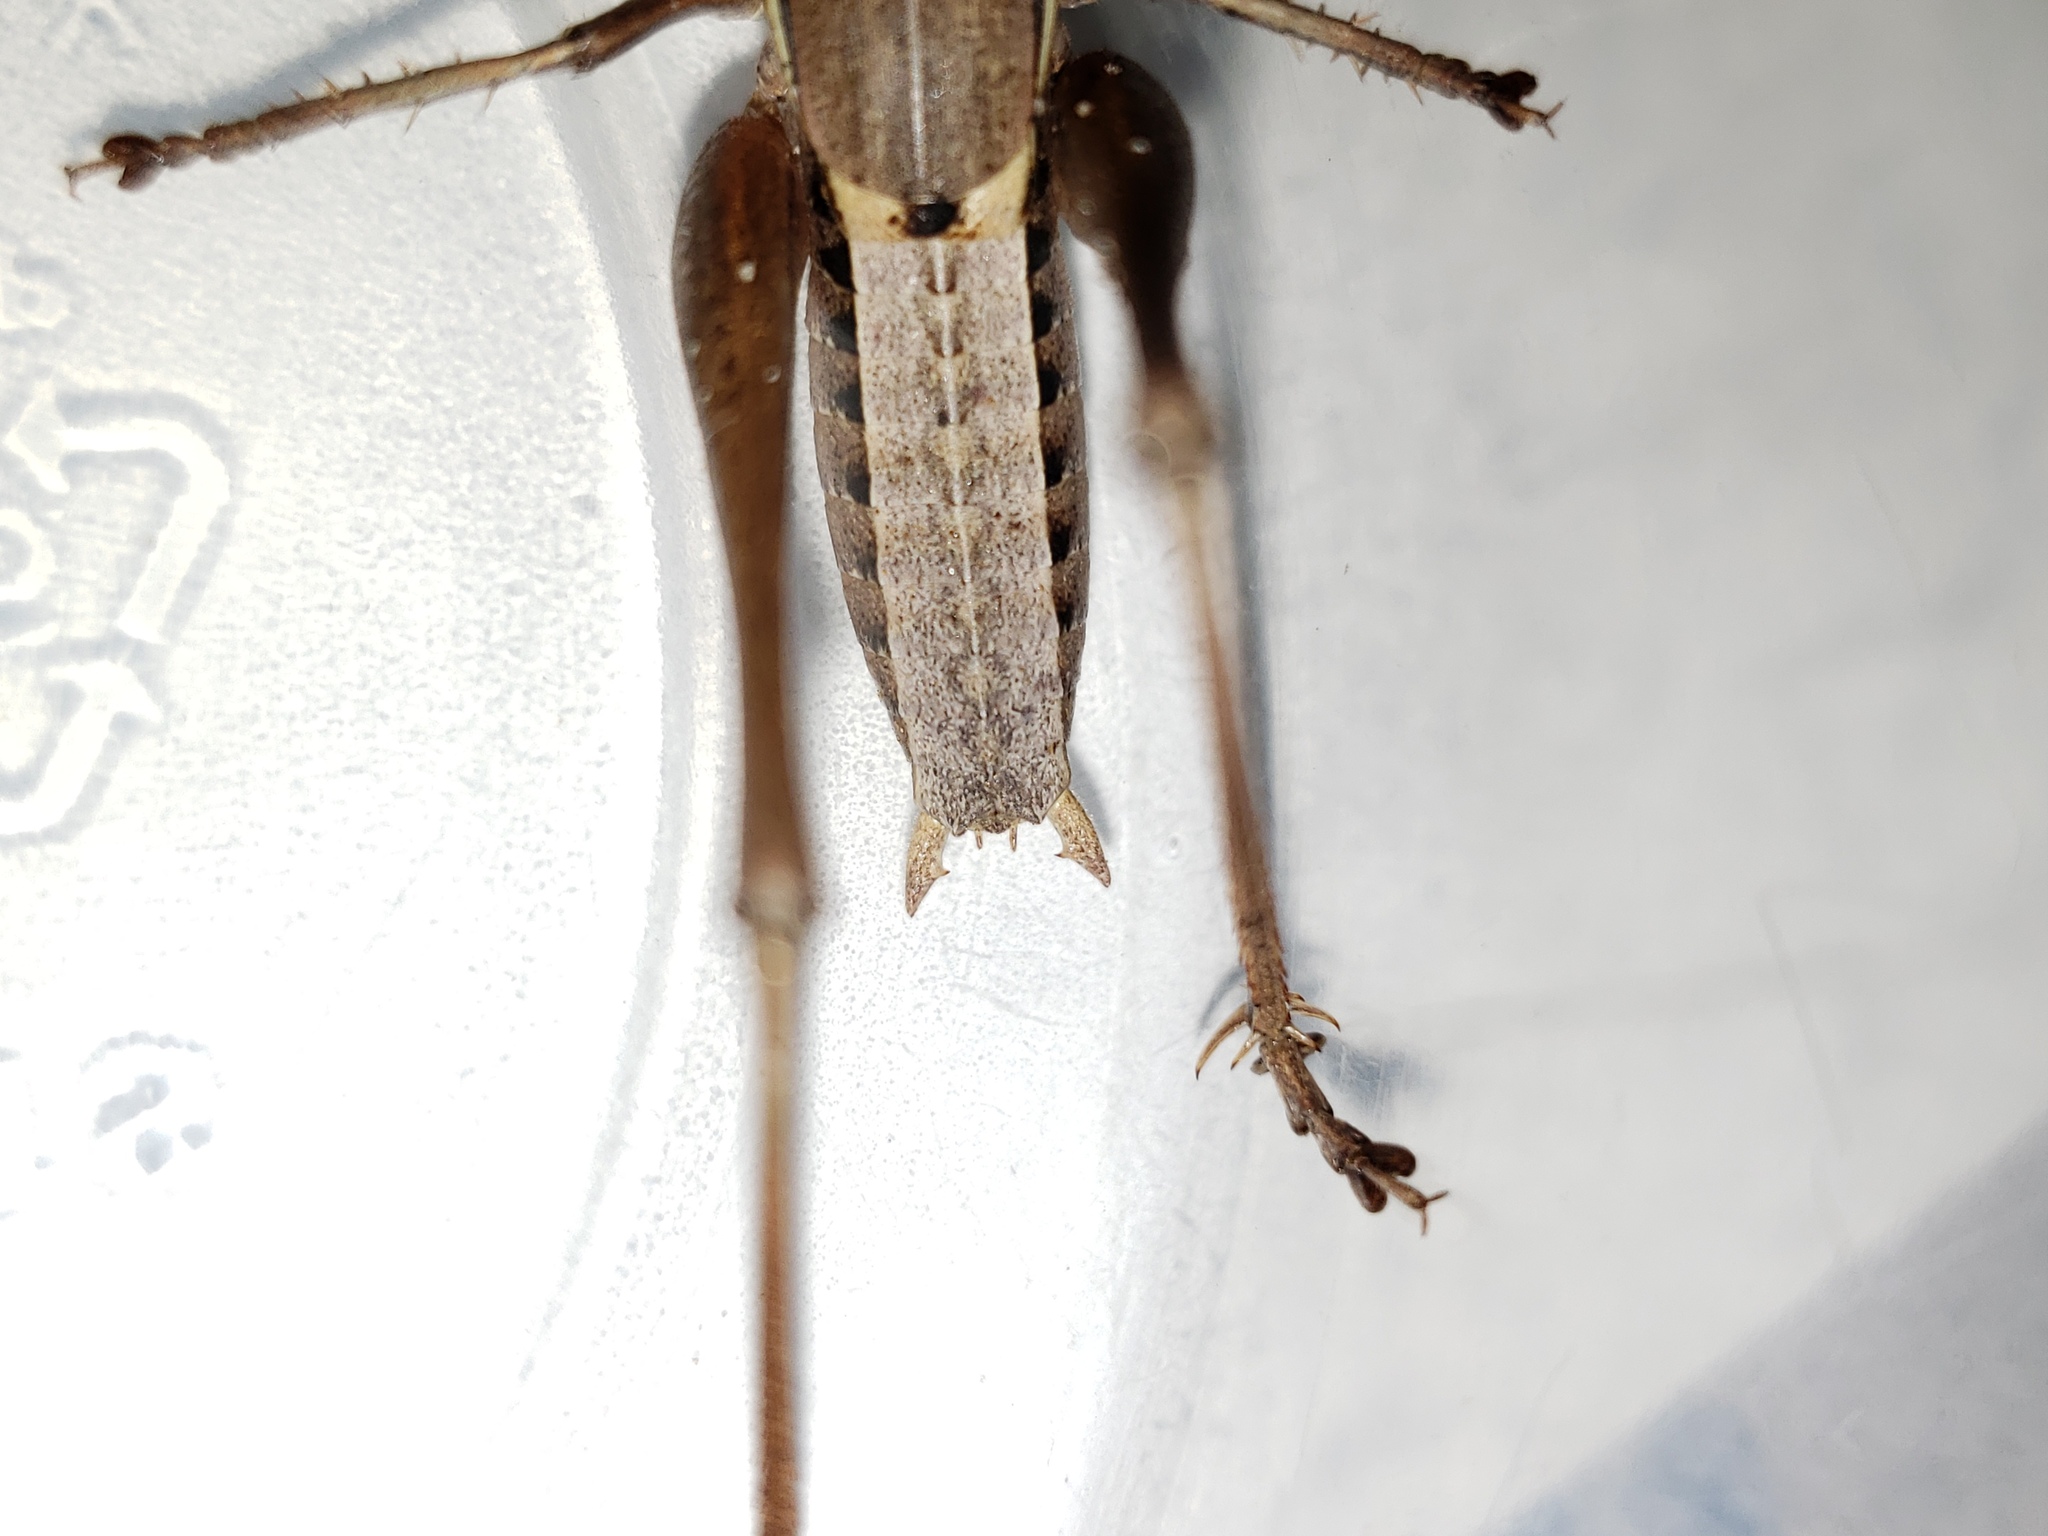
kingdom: Animalia
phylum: Arthropoda
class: Insecta
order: Orthoptera
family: Tettigoniidae
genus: Atlanticus
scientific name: Atlanticus glaber
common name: Smooth shield-bearer
